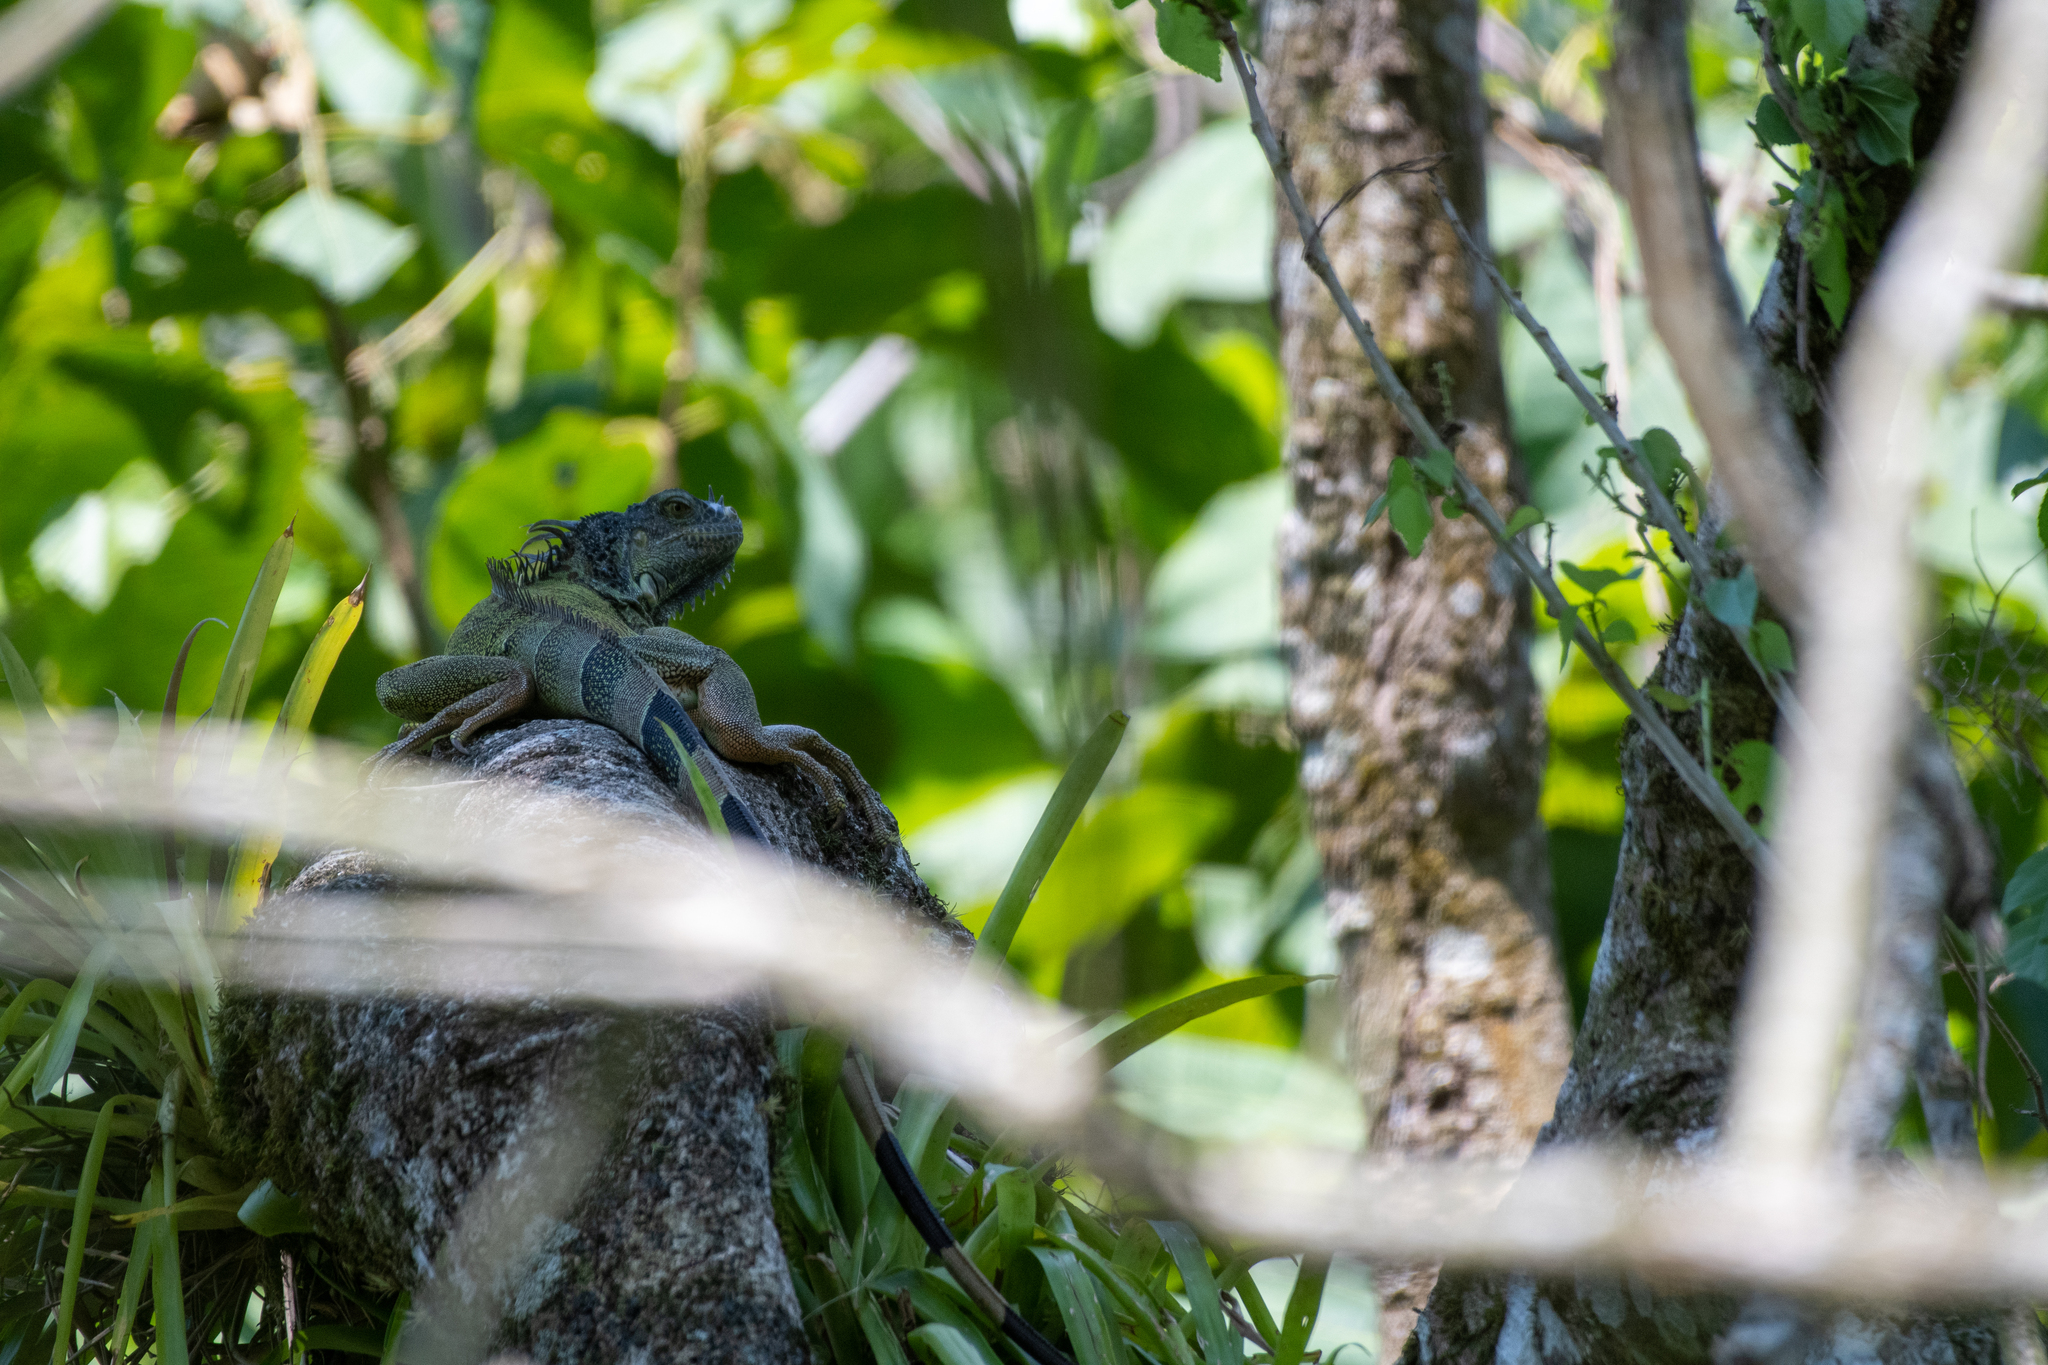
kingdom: Animalia
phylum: Chordata
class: Squamata
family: Iguanidae
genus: Iguana
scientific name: Iguana iguana
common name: Green iguana
